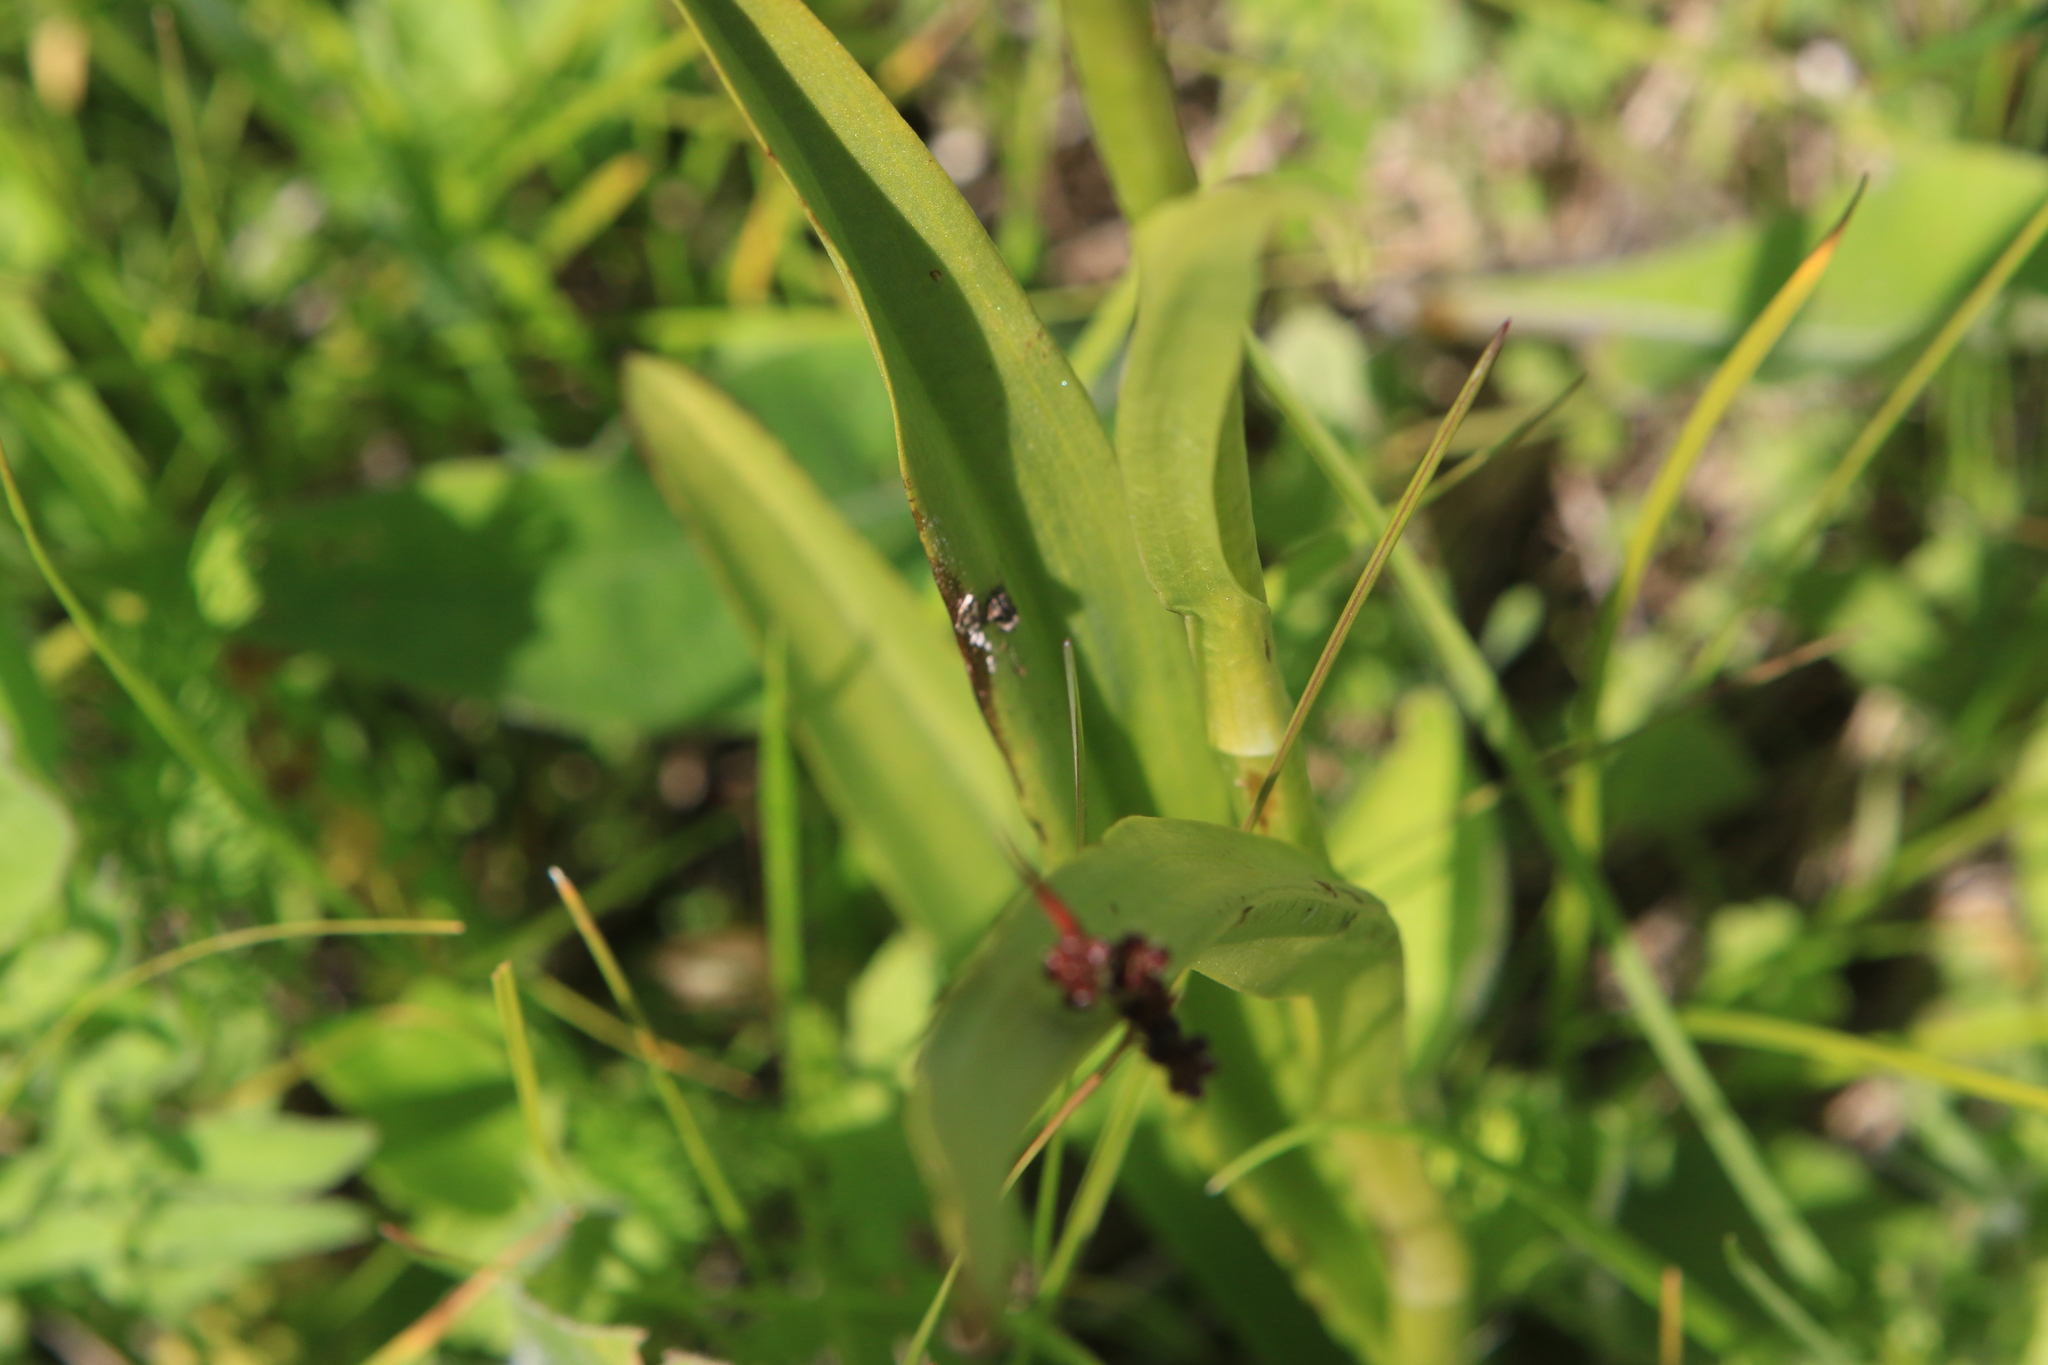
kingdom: Plantae
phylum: Tracheophyta
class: Liliopsida
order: Asparagales
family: Orchidaceae
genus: Gymnadenia
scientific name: Gymnadenia conopsea
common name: Fragrant orchid
